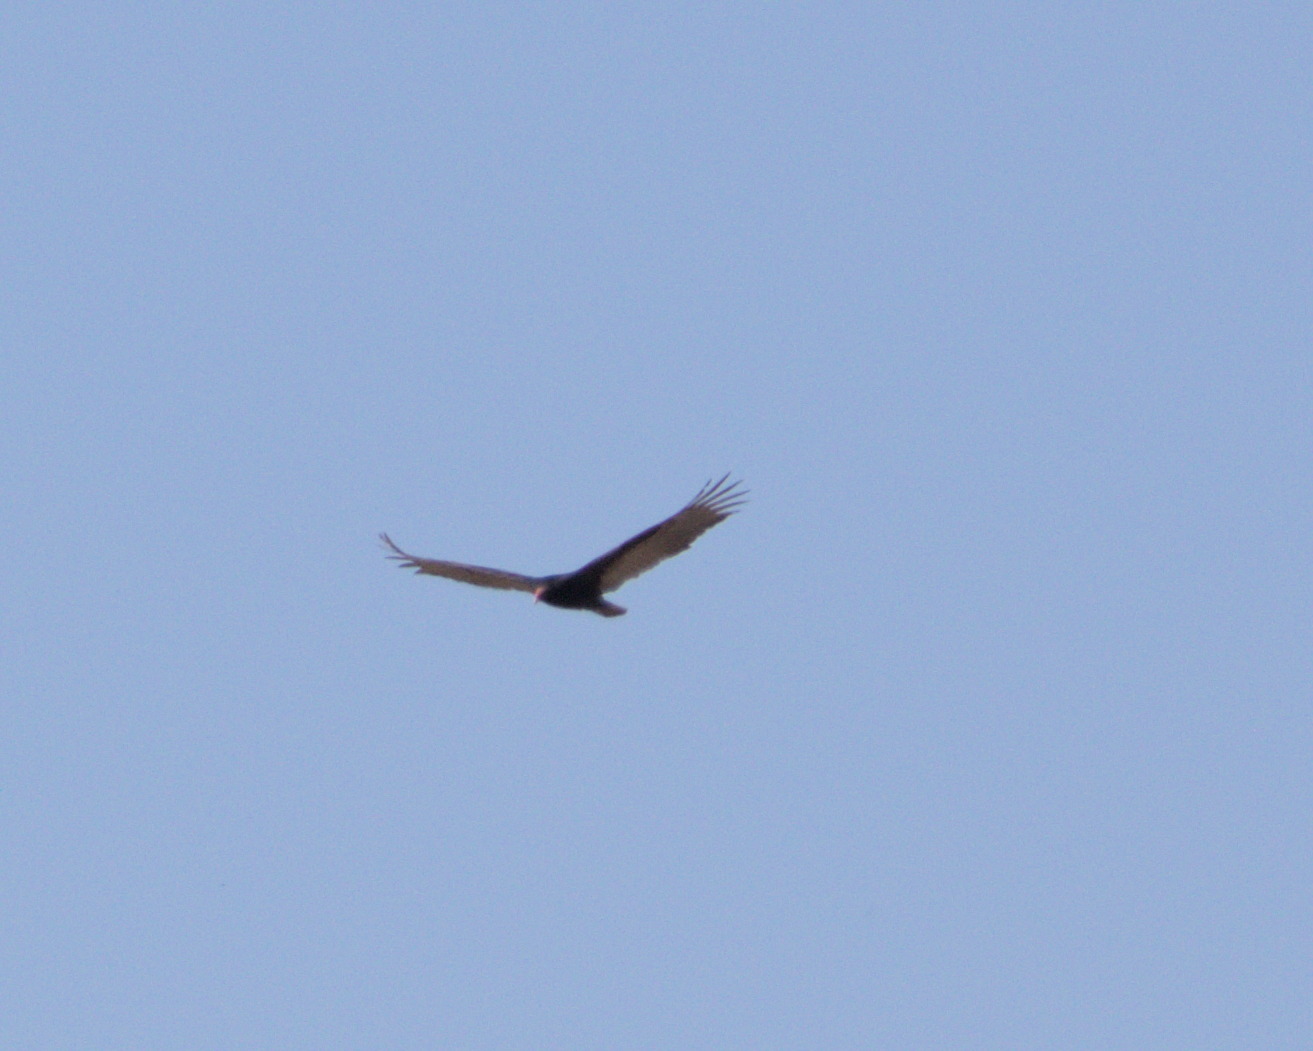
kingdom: Animalia
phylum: Chordata
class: Aves
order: Accipitriformes
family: Cathartidae
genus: Cathartes
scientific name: Cathartes aura
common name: Turkey vulture
